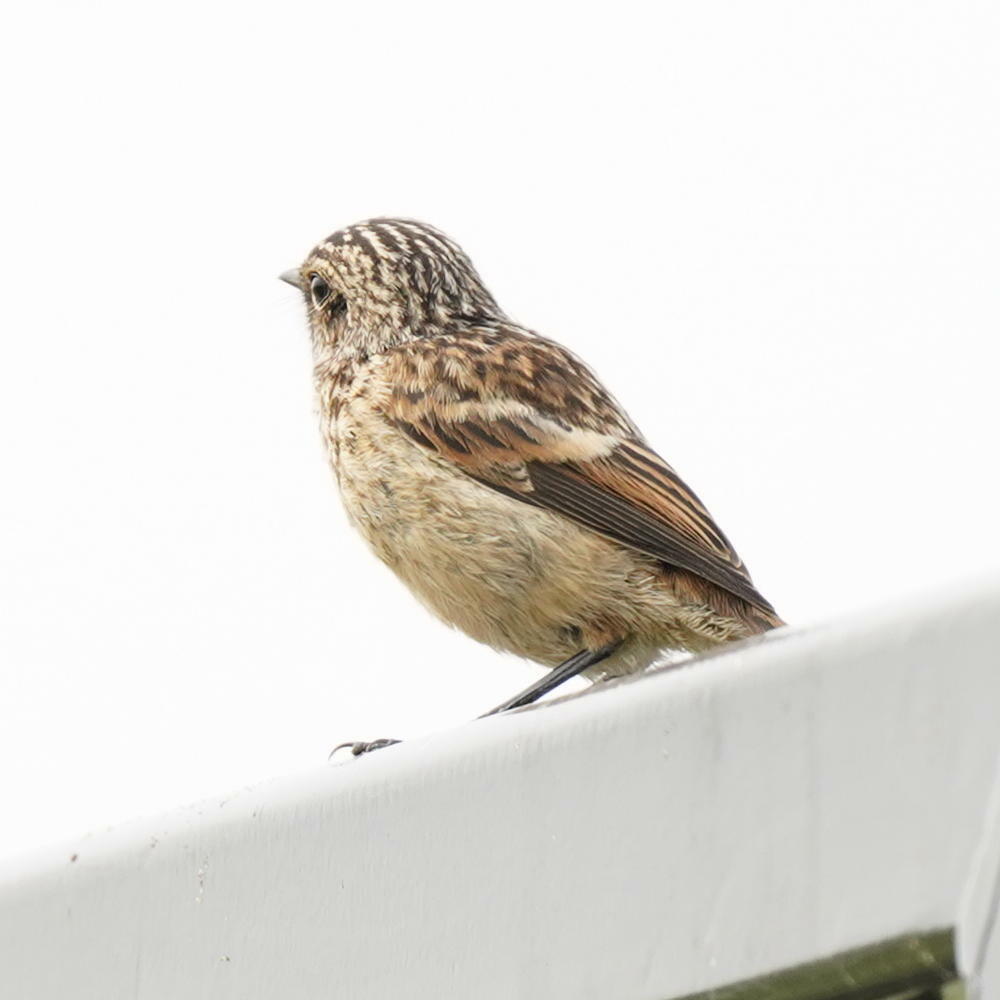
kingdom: Animalia
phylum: Chordata
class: Aves
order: Passeriformes
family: Muscicapidae
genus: Saxicola
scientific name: Saxicola rubicola
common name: European stonechat
